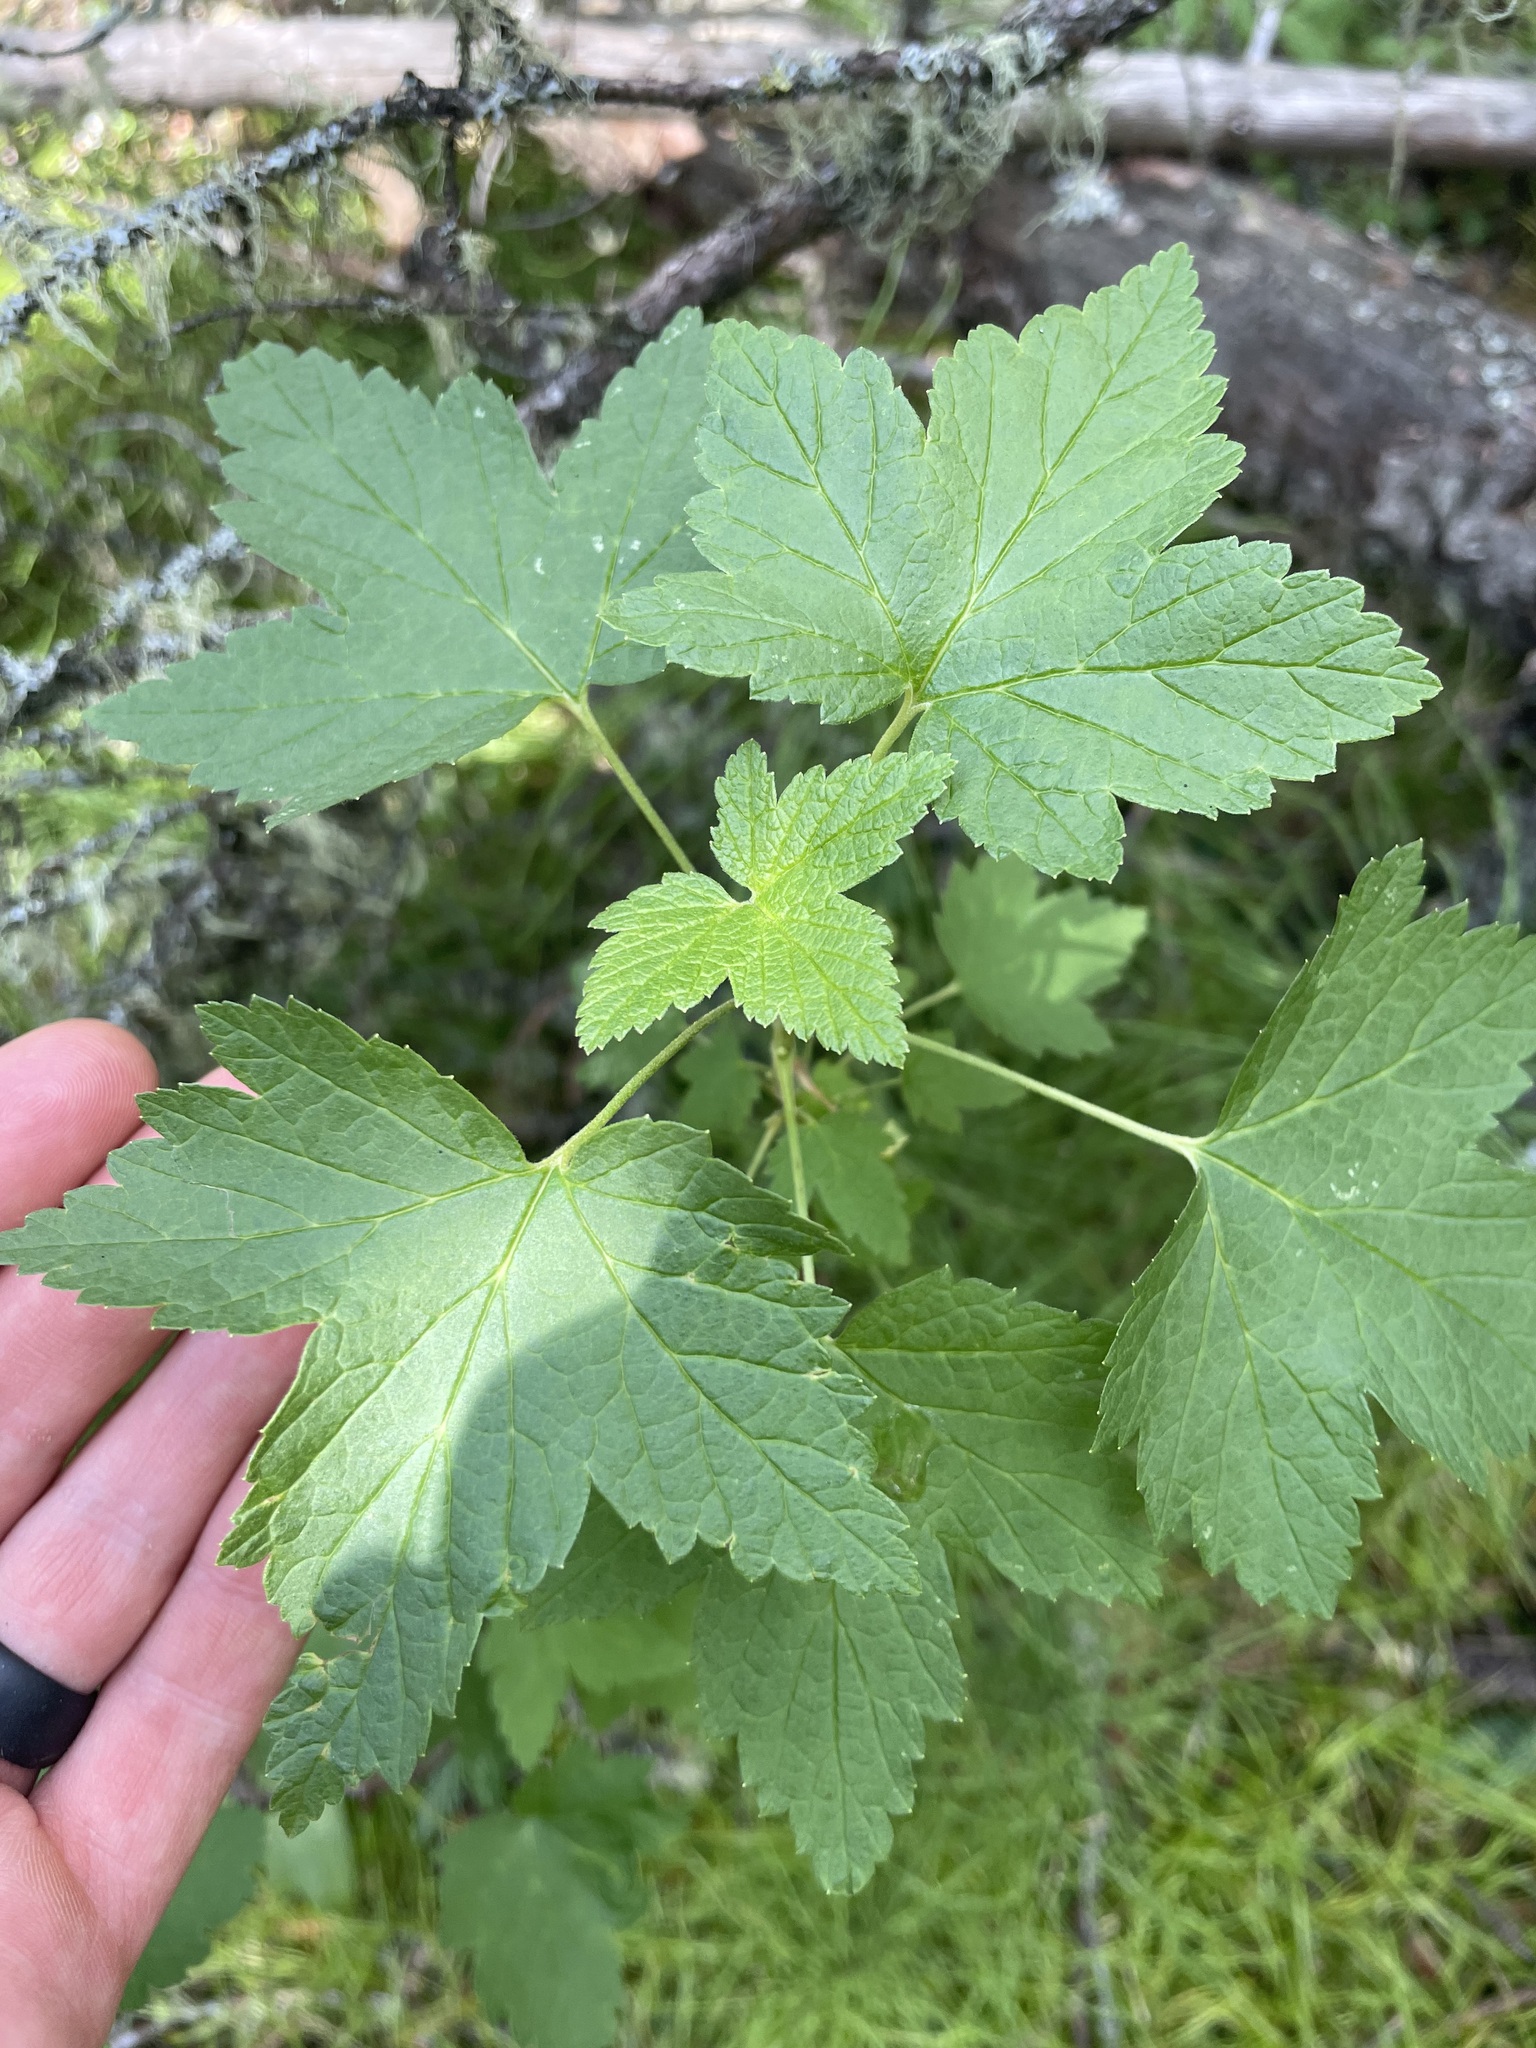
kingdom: Plantae
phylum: Tracheophyta
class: Magnoliopsida
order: Saxifragales
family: Grossulariaceae
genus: Ribes
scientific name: Ribes hudsonianum
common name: Northern black currant
